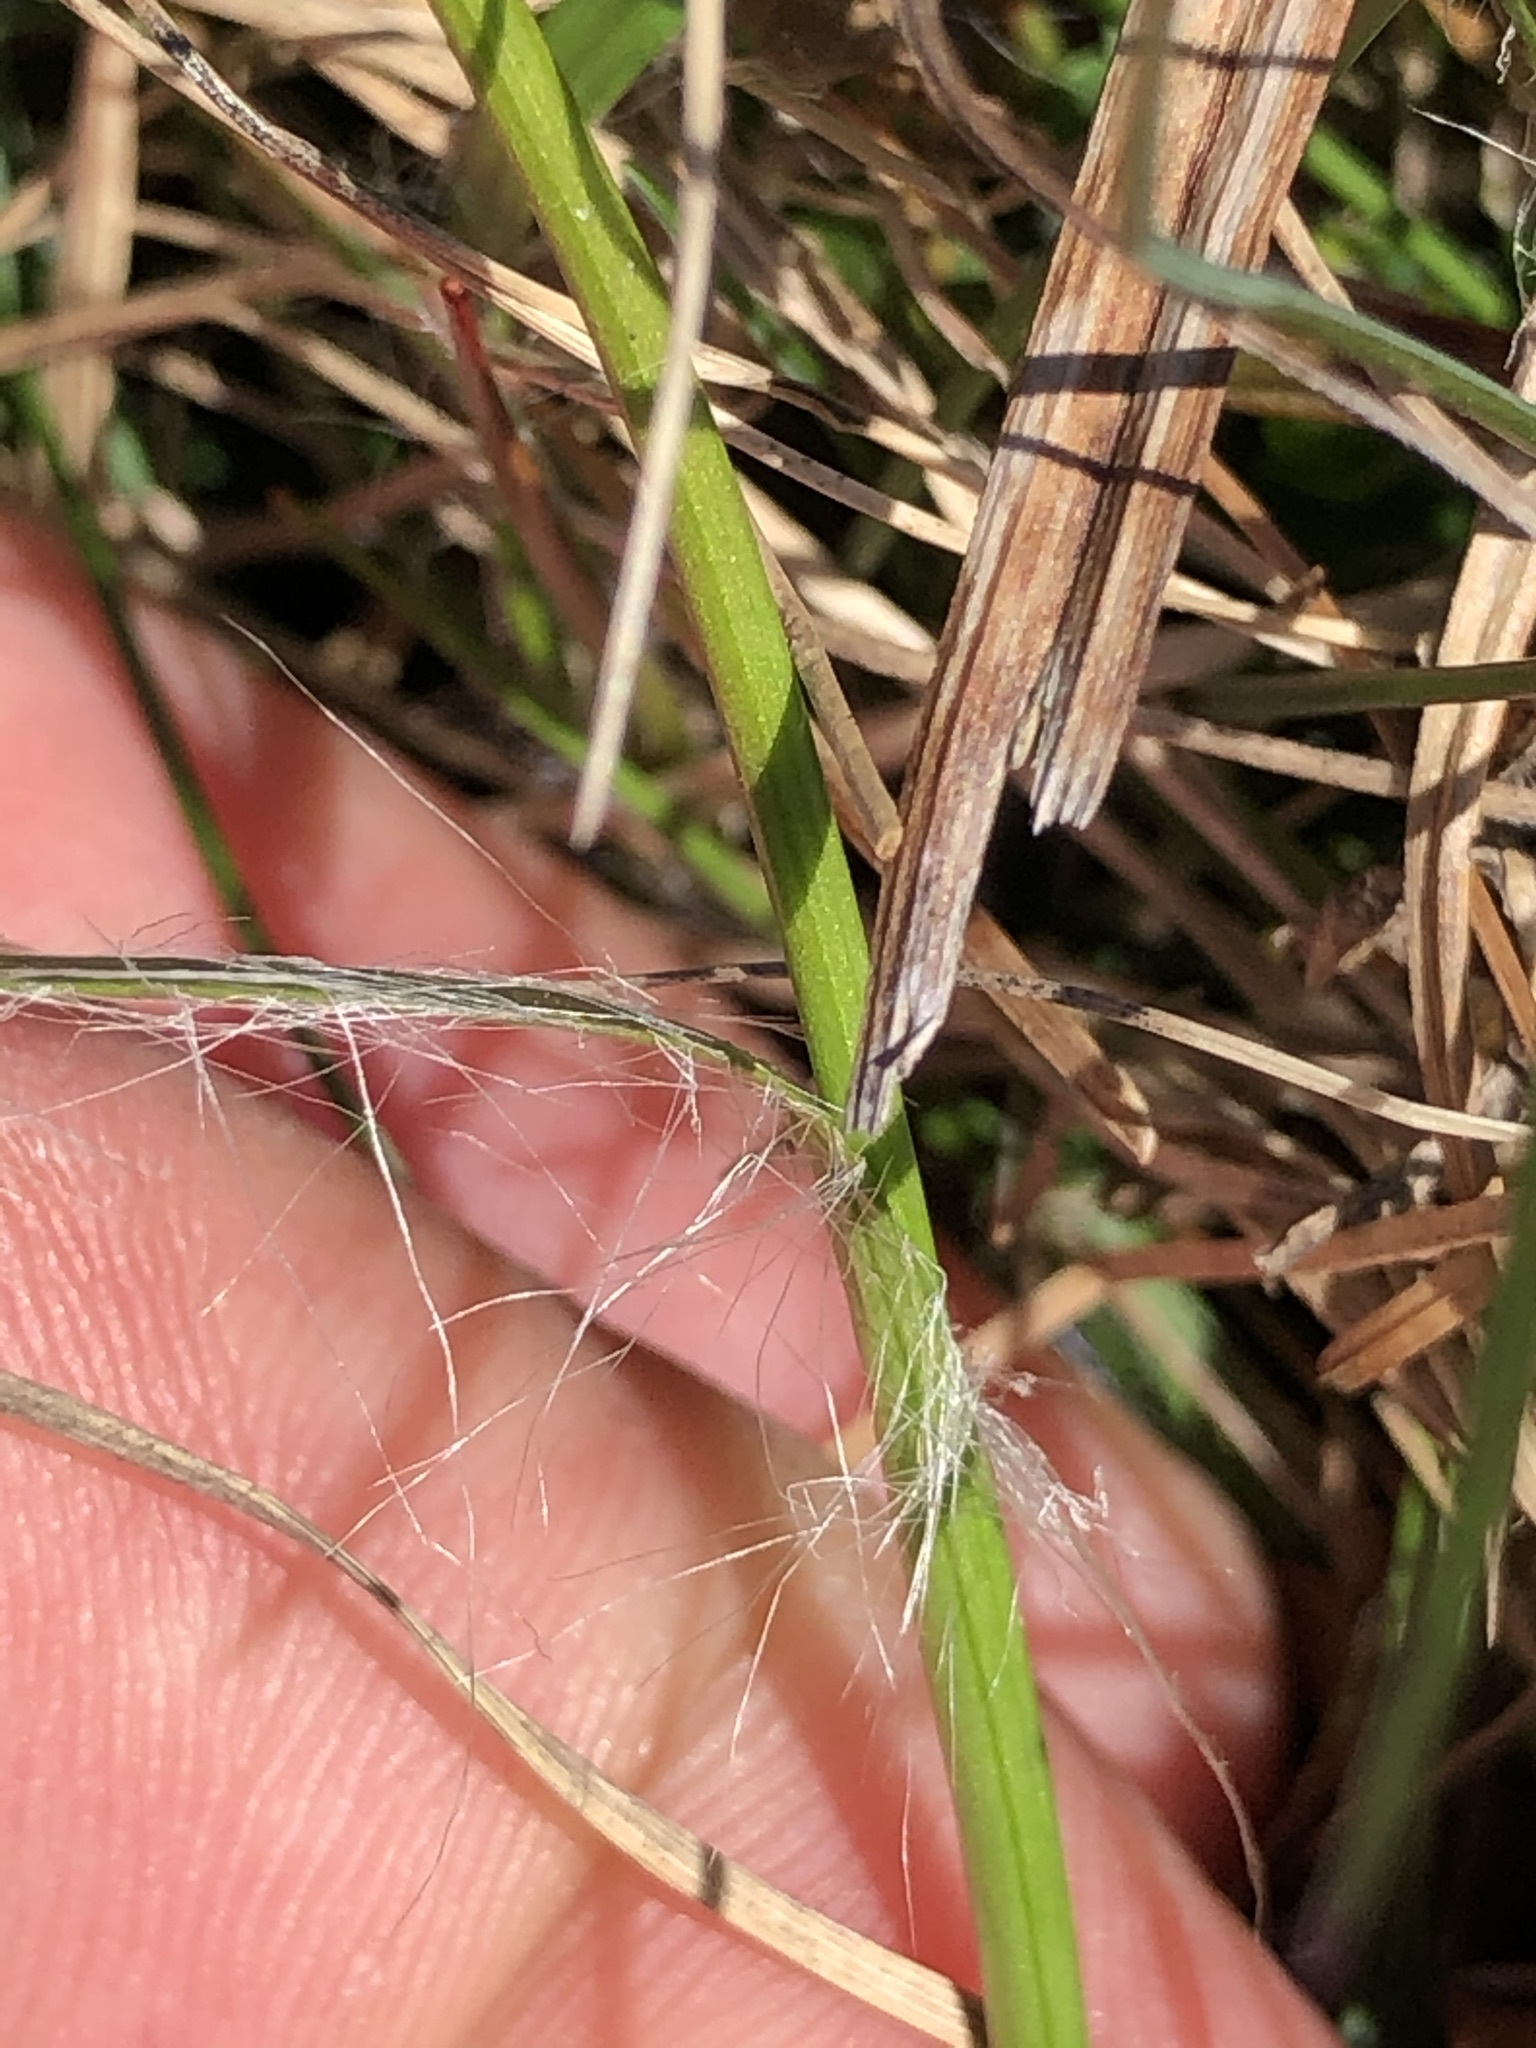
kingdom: Plantae
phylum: Tracheophyta
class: Liliopsida
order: Poales
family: Juncaceae
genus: Luzula
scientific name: Luzula campestris
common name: Field wood-rush
